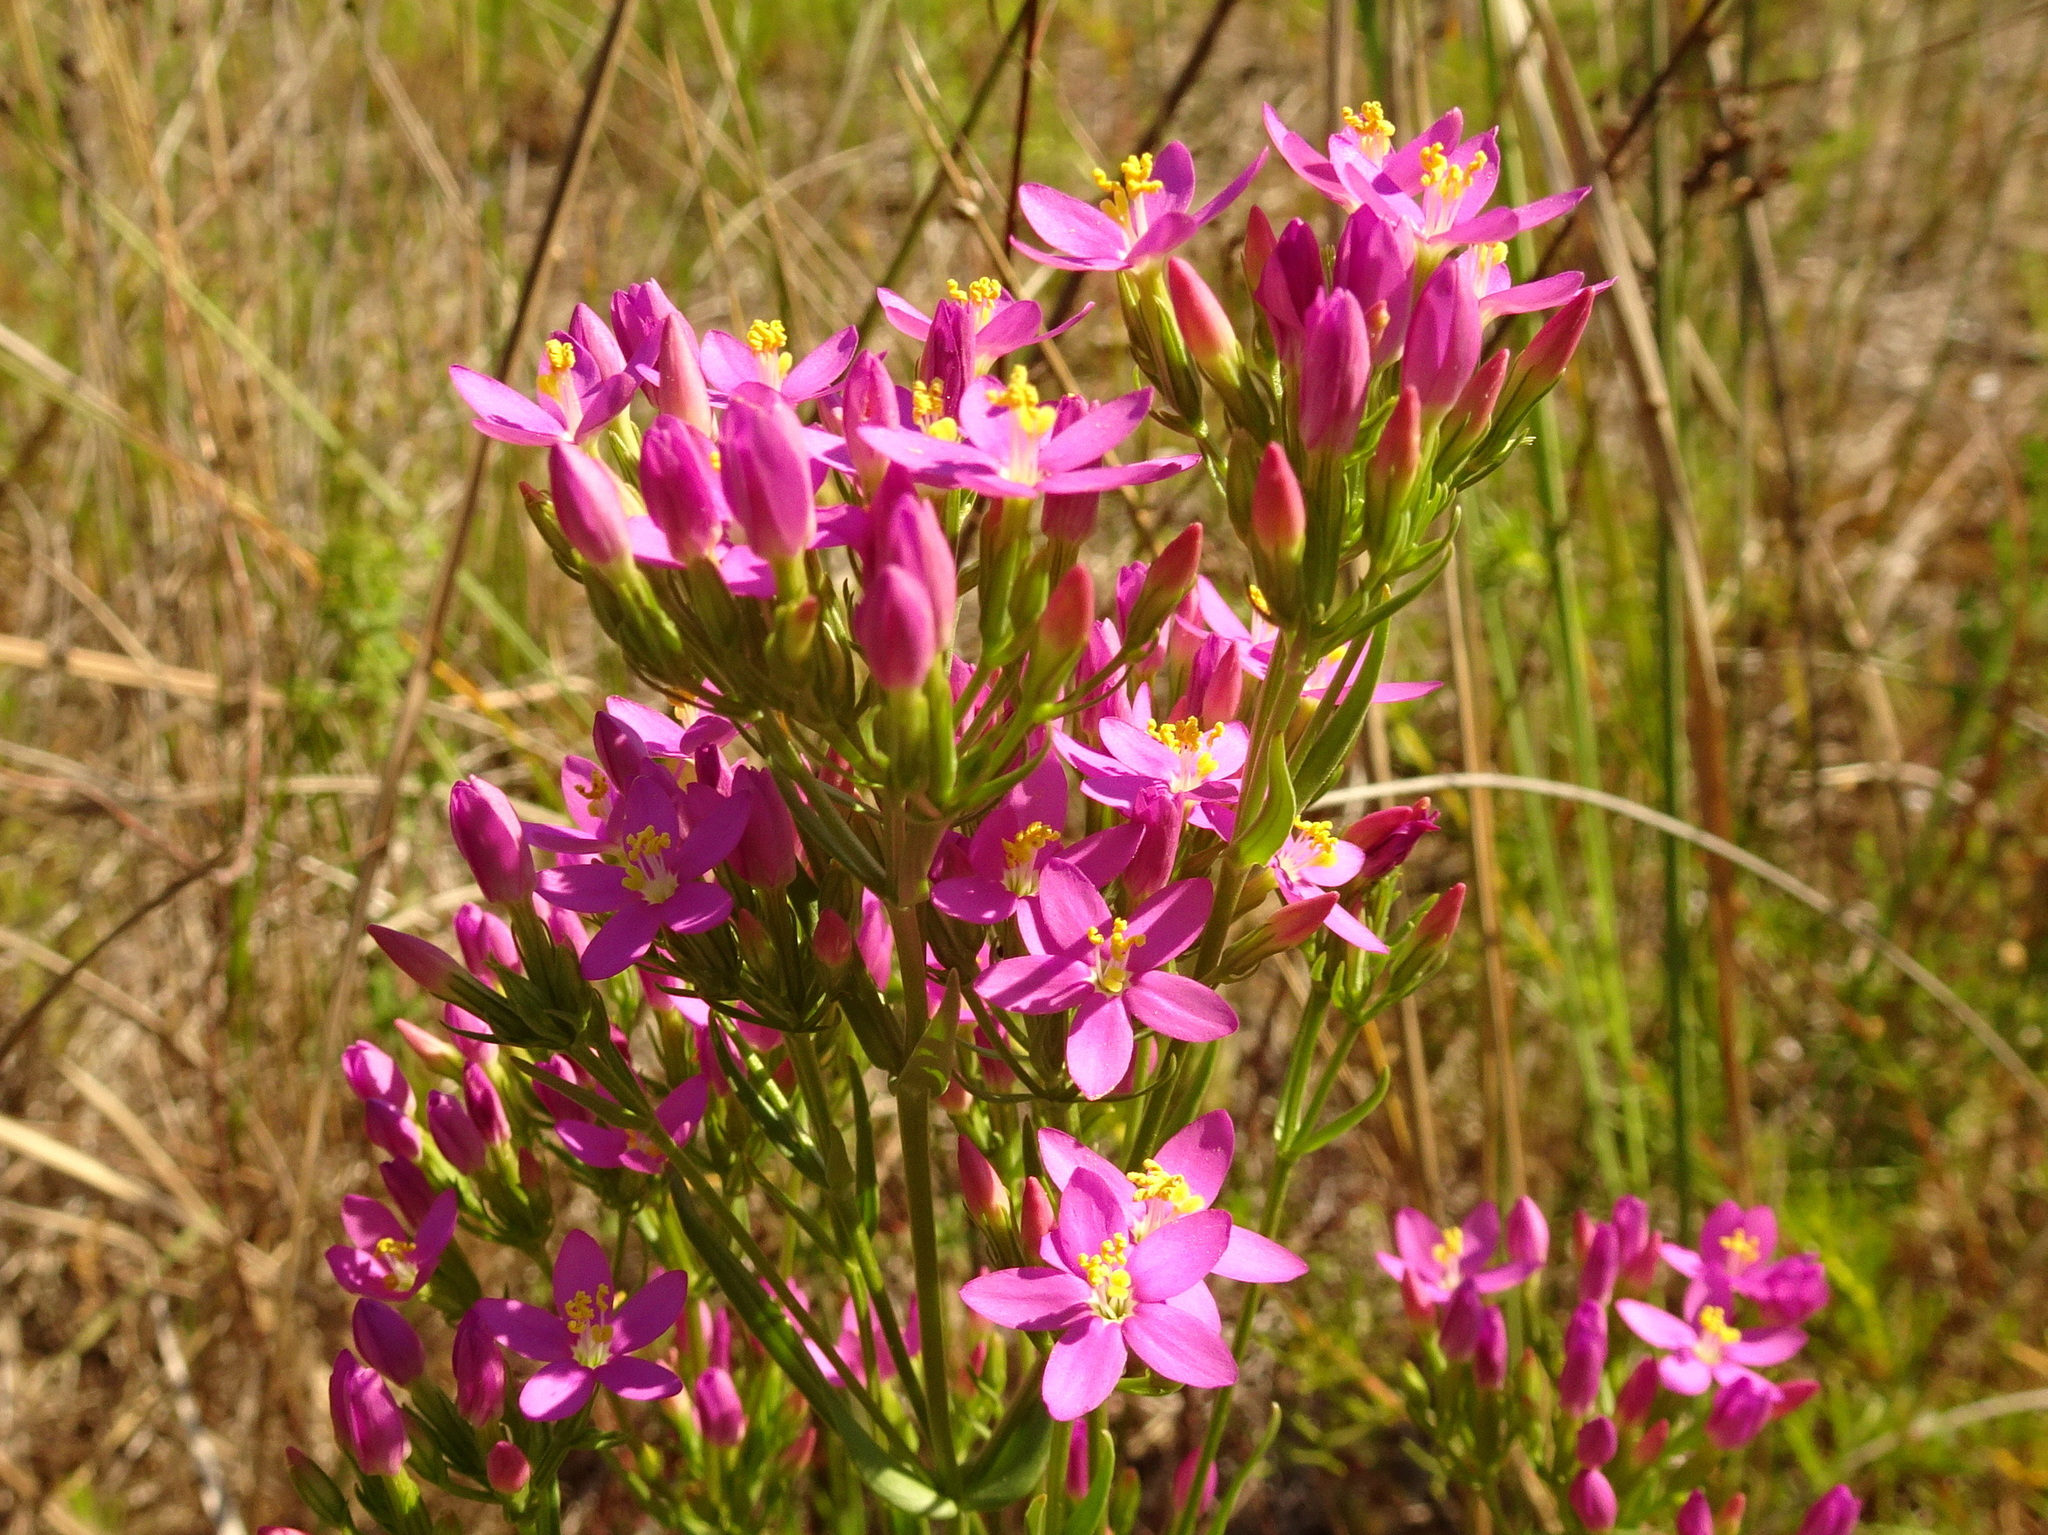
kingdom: Plantae
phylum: Tracheophyta
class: Magnoliopsida
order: Gentianales
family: Gentianaceae
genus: Centaurium
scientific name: Centaurium erythraea
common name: Common centaury
